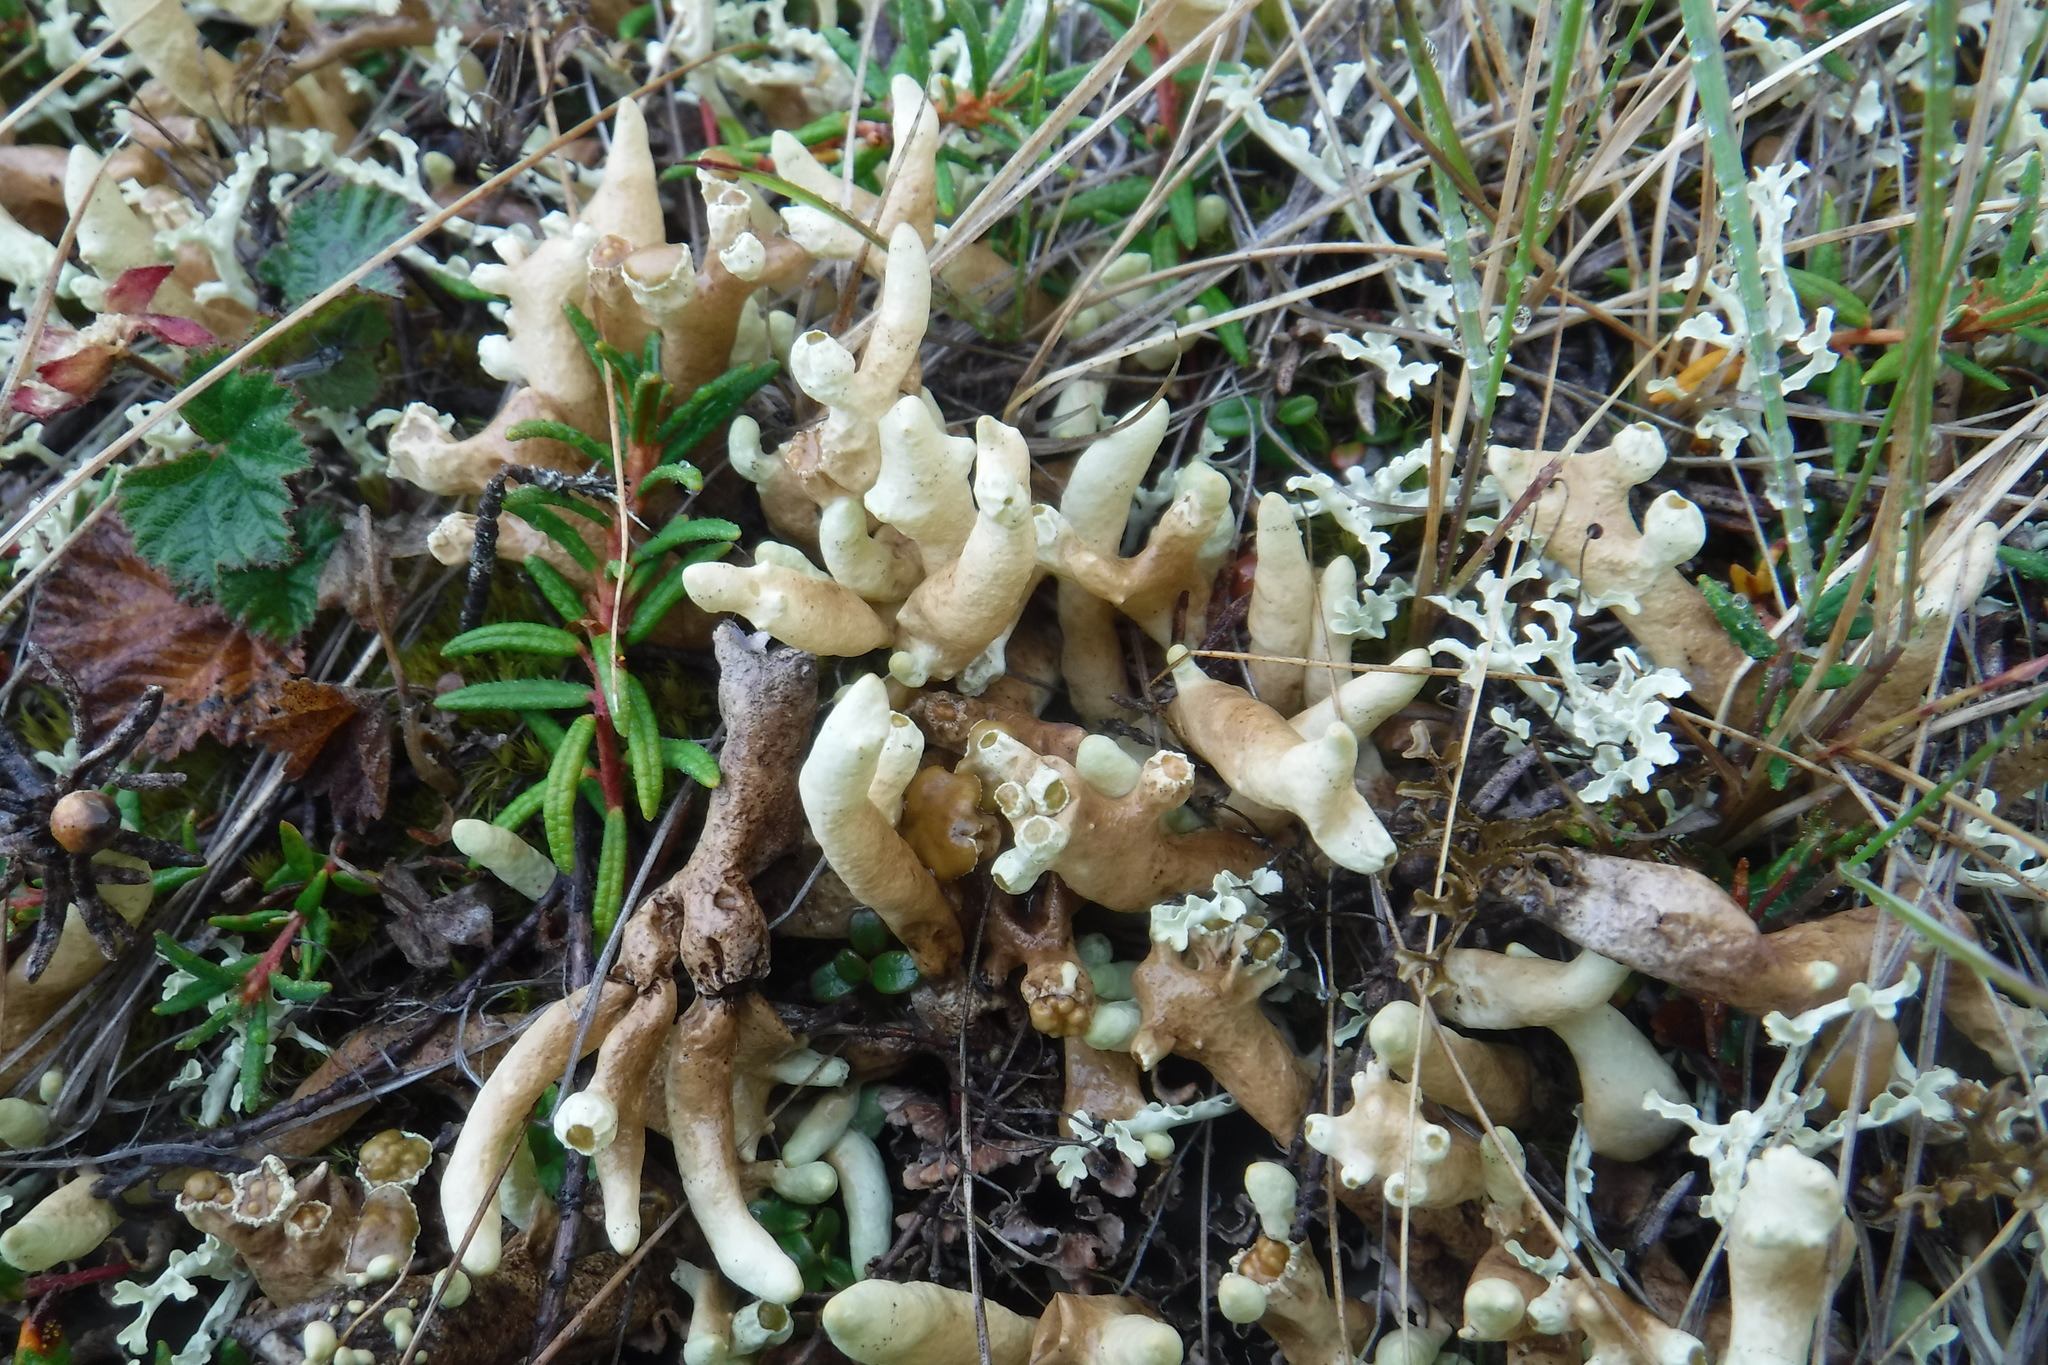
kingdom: Fungi
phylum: Ascomycota
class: Lecanoromycetes
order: Lecanorales
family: Parmeliaceae
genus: Dactylina
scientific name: Dactylina arctica
